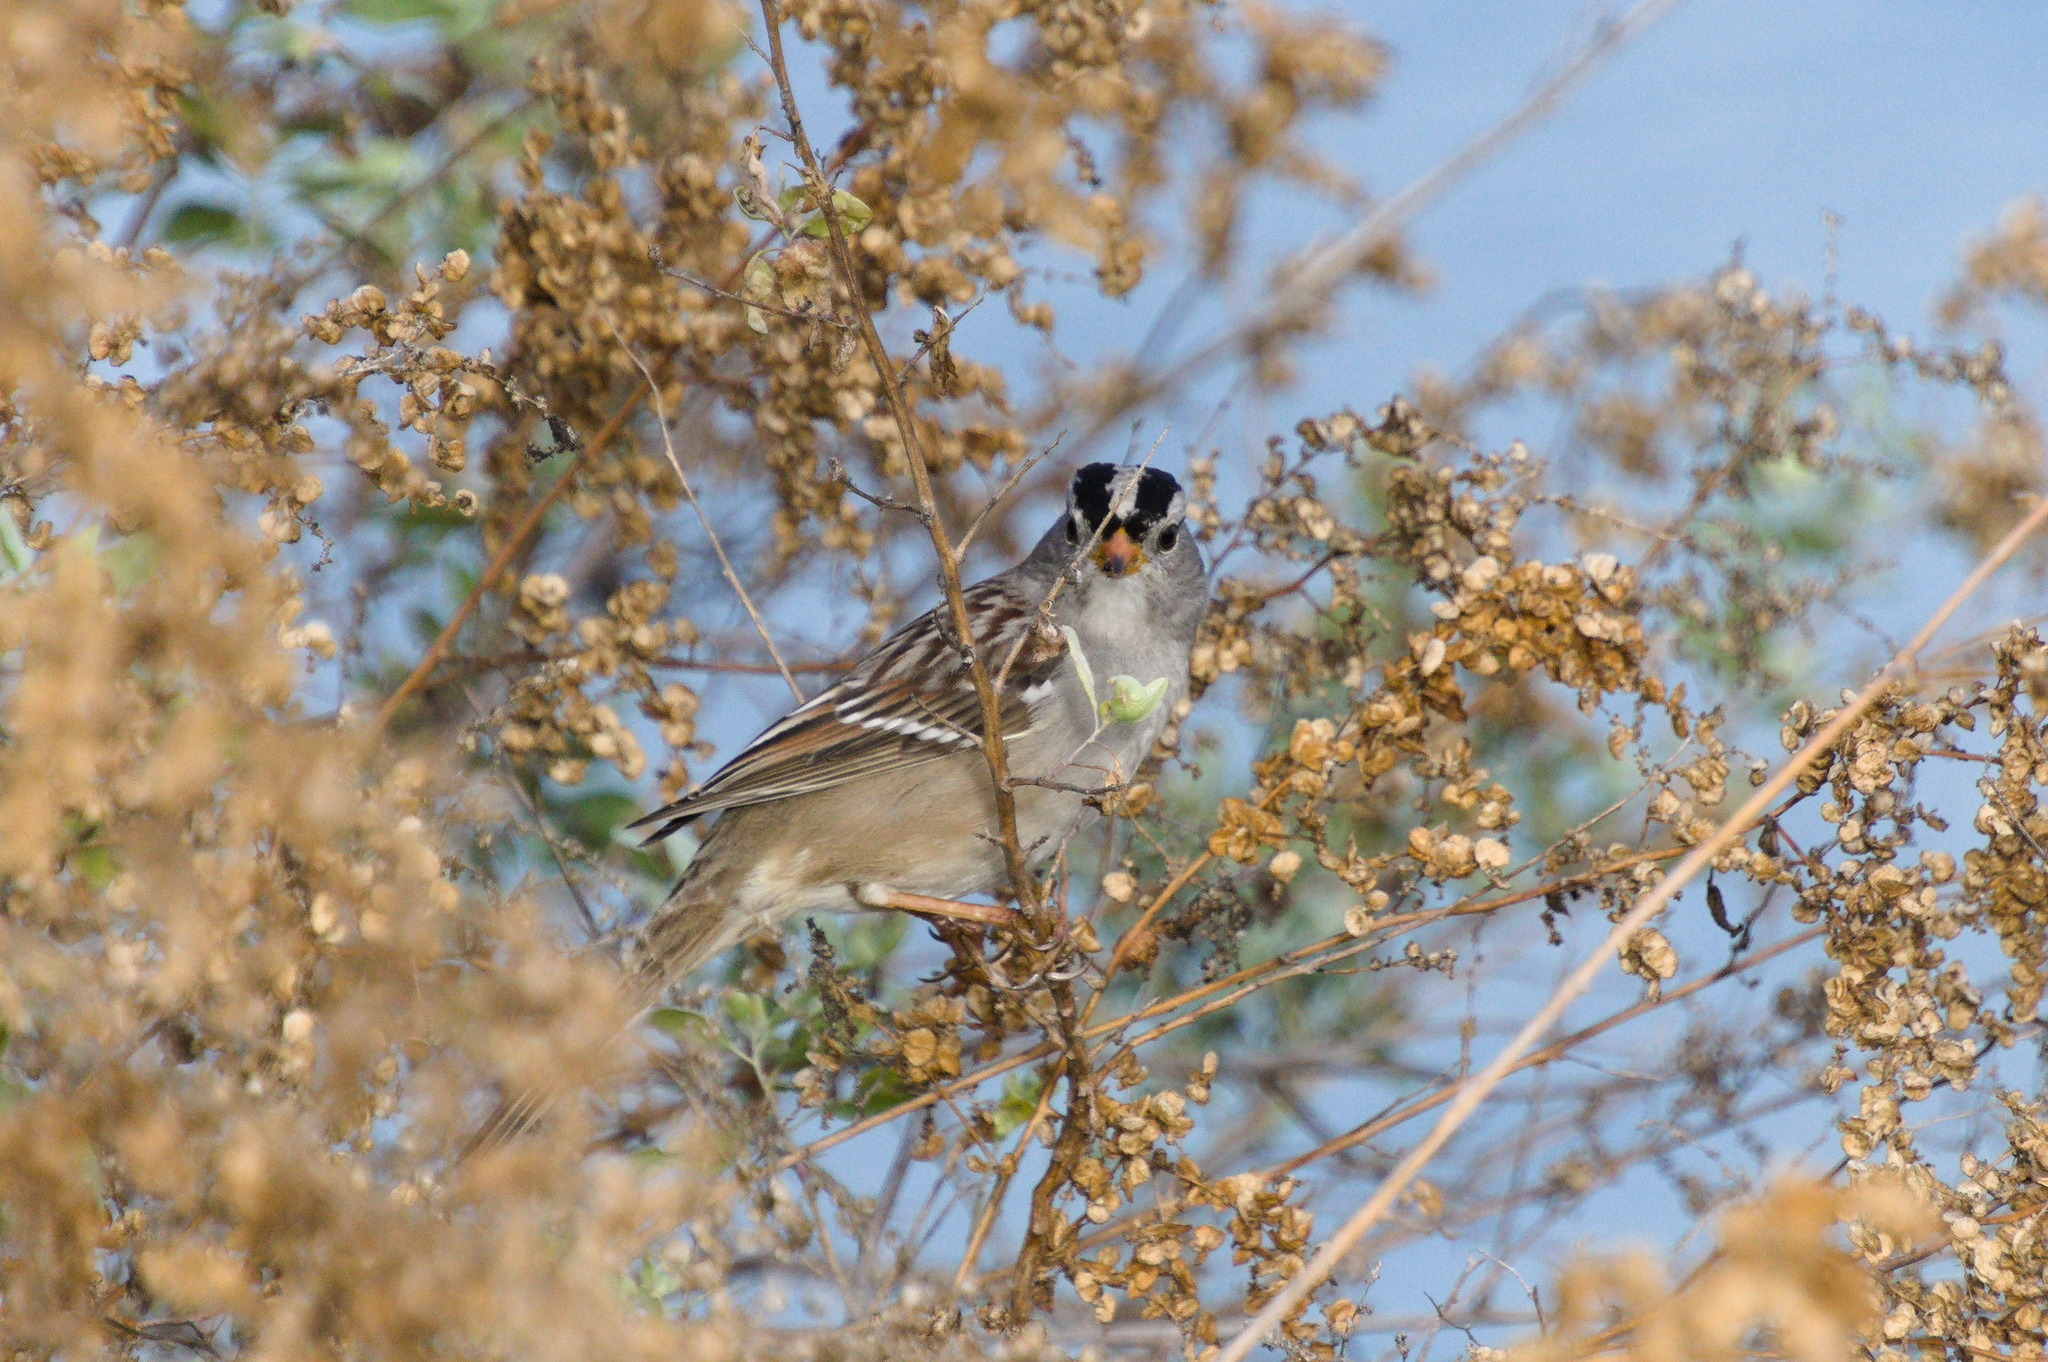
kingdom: Animalia
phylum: Chordata
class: Aves
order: Passeriformes
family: Passerellidae
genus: Zonotrichia
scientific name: Zonotrichia leucophrys
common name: White-crowned sparrow
